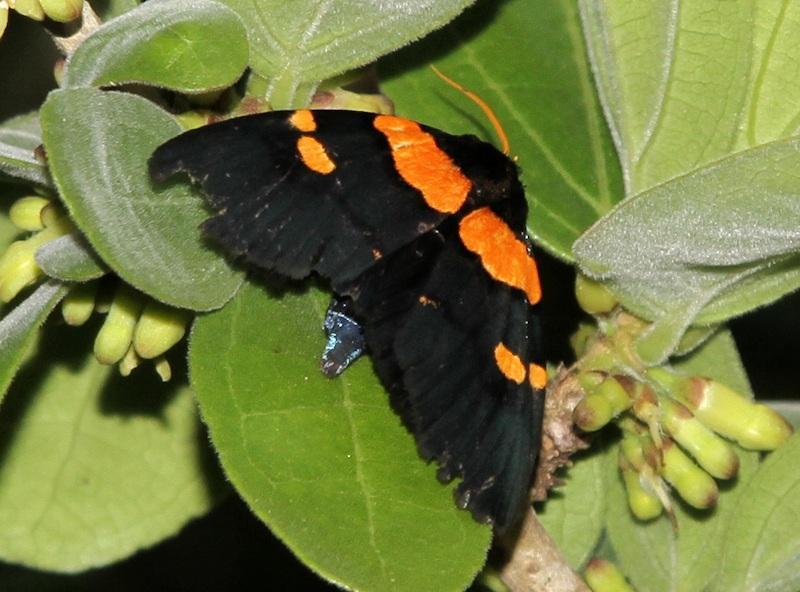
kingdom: Animalia
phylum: Arthropoda
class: Insecta
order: Lepidoptera
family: Erebidae
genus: Egybolis
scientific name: Egybolis vaillantina
